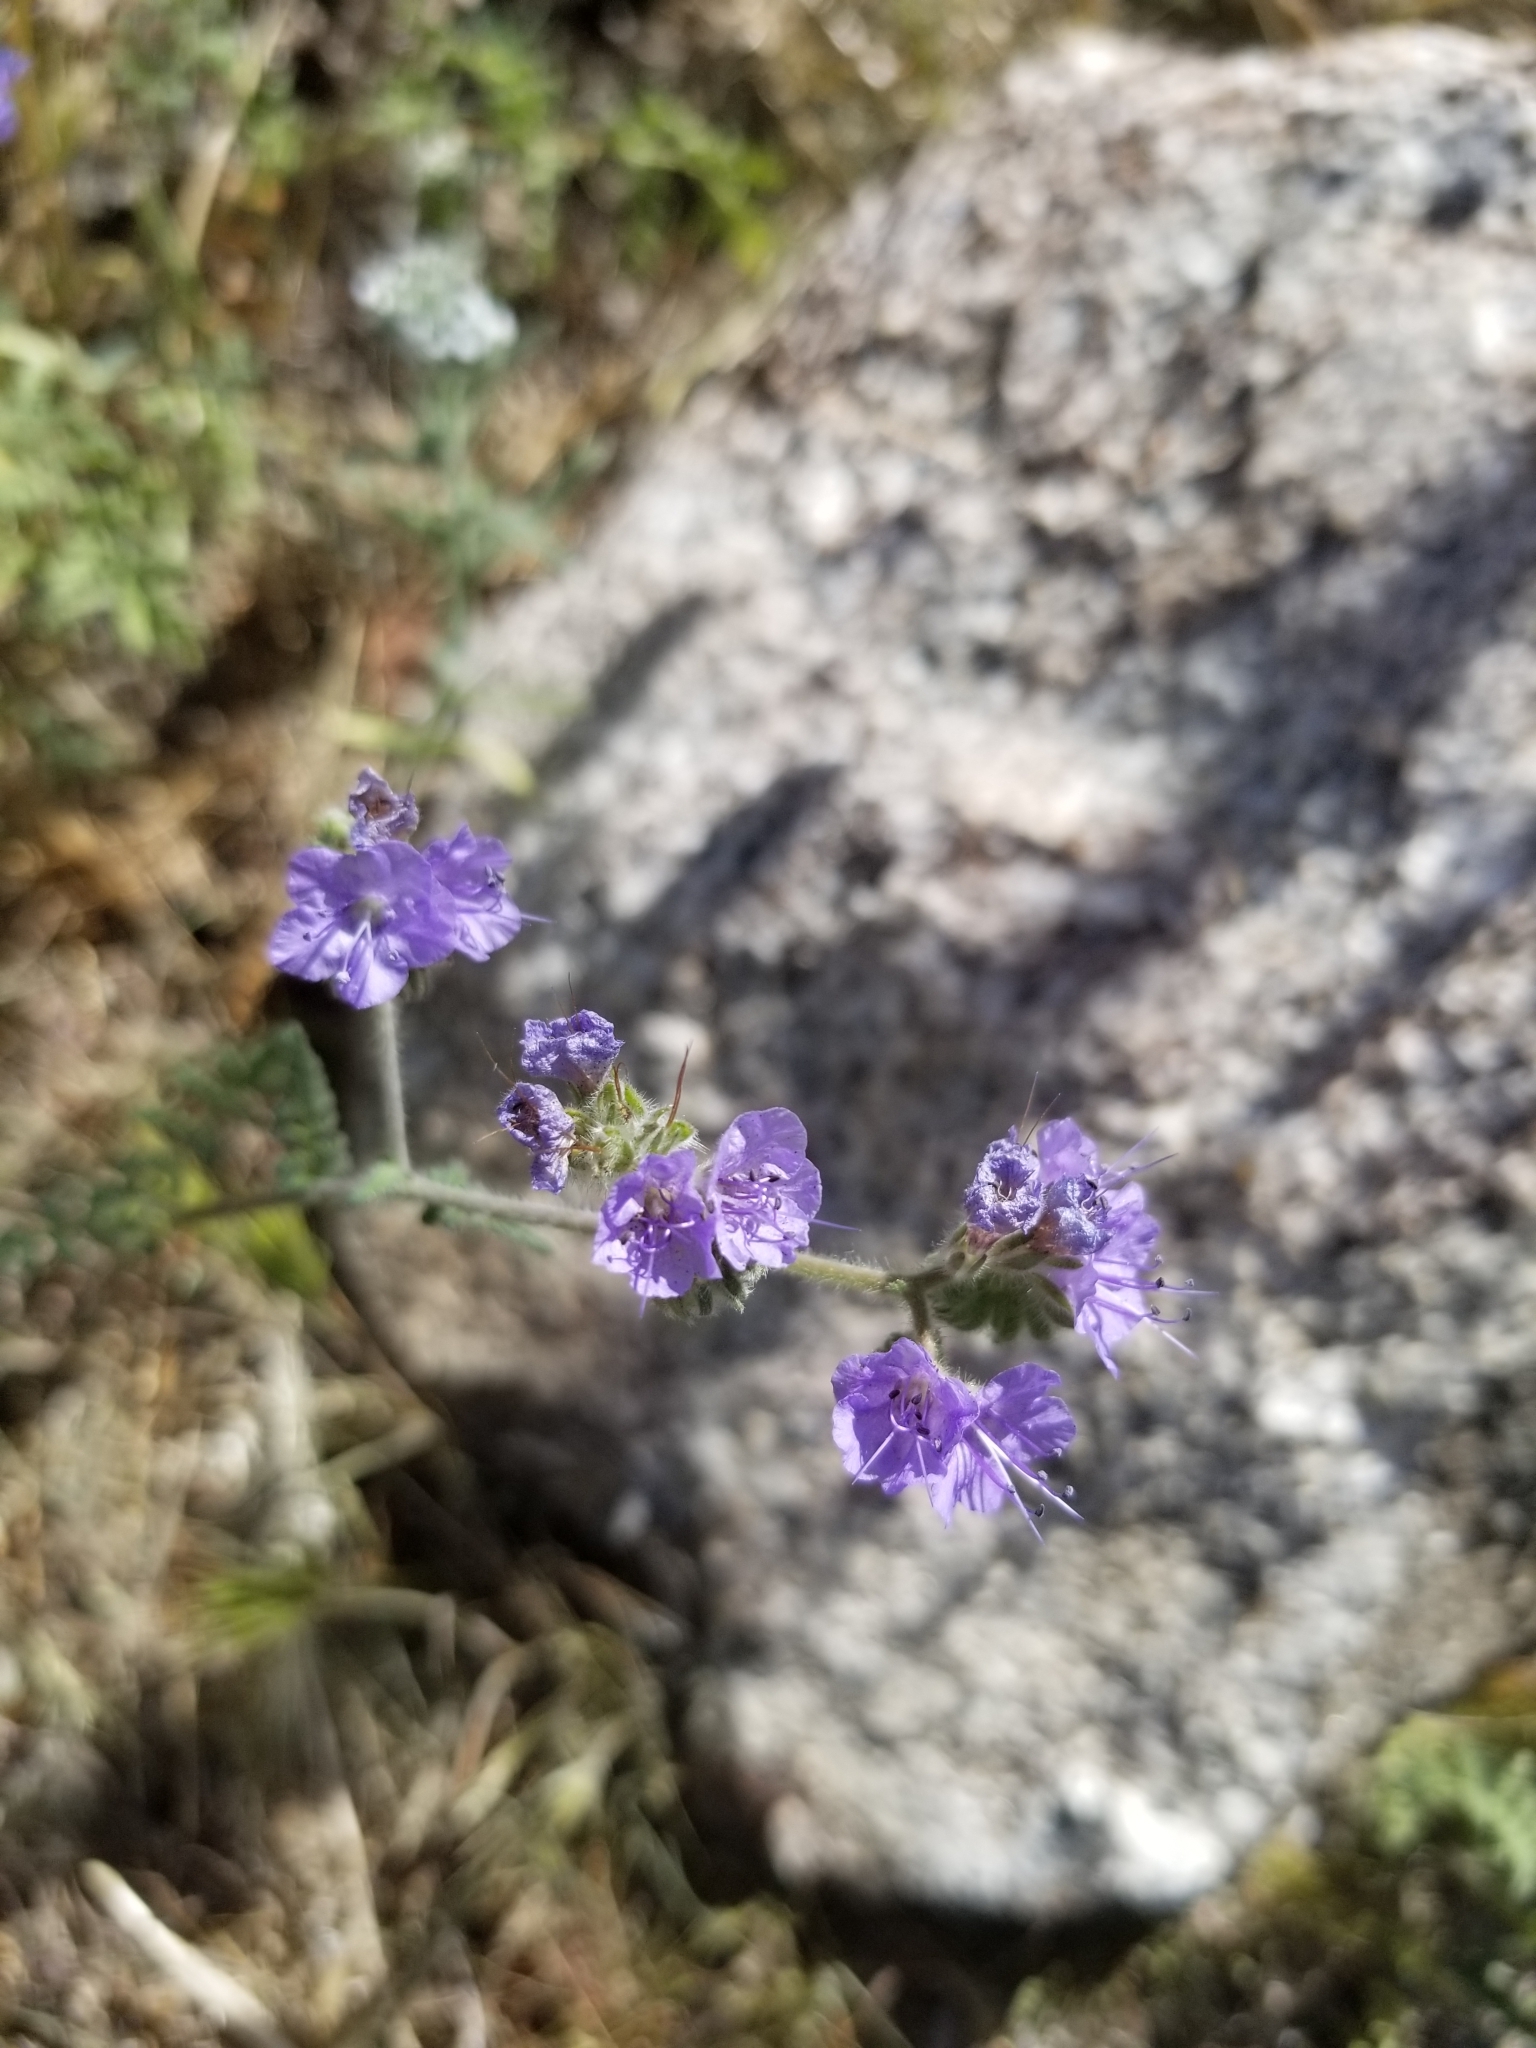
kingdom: Plantae
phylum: Tracheophyta
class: Magnoliopsida
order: Boraginales
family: Hydrophyllaceae
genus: Phacelia
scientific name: Phacelia distans
